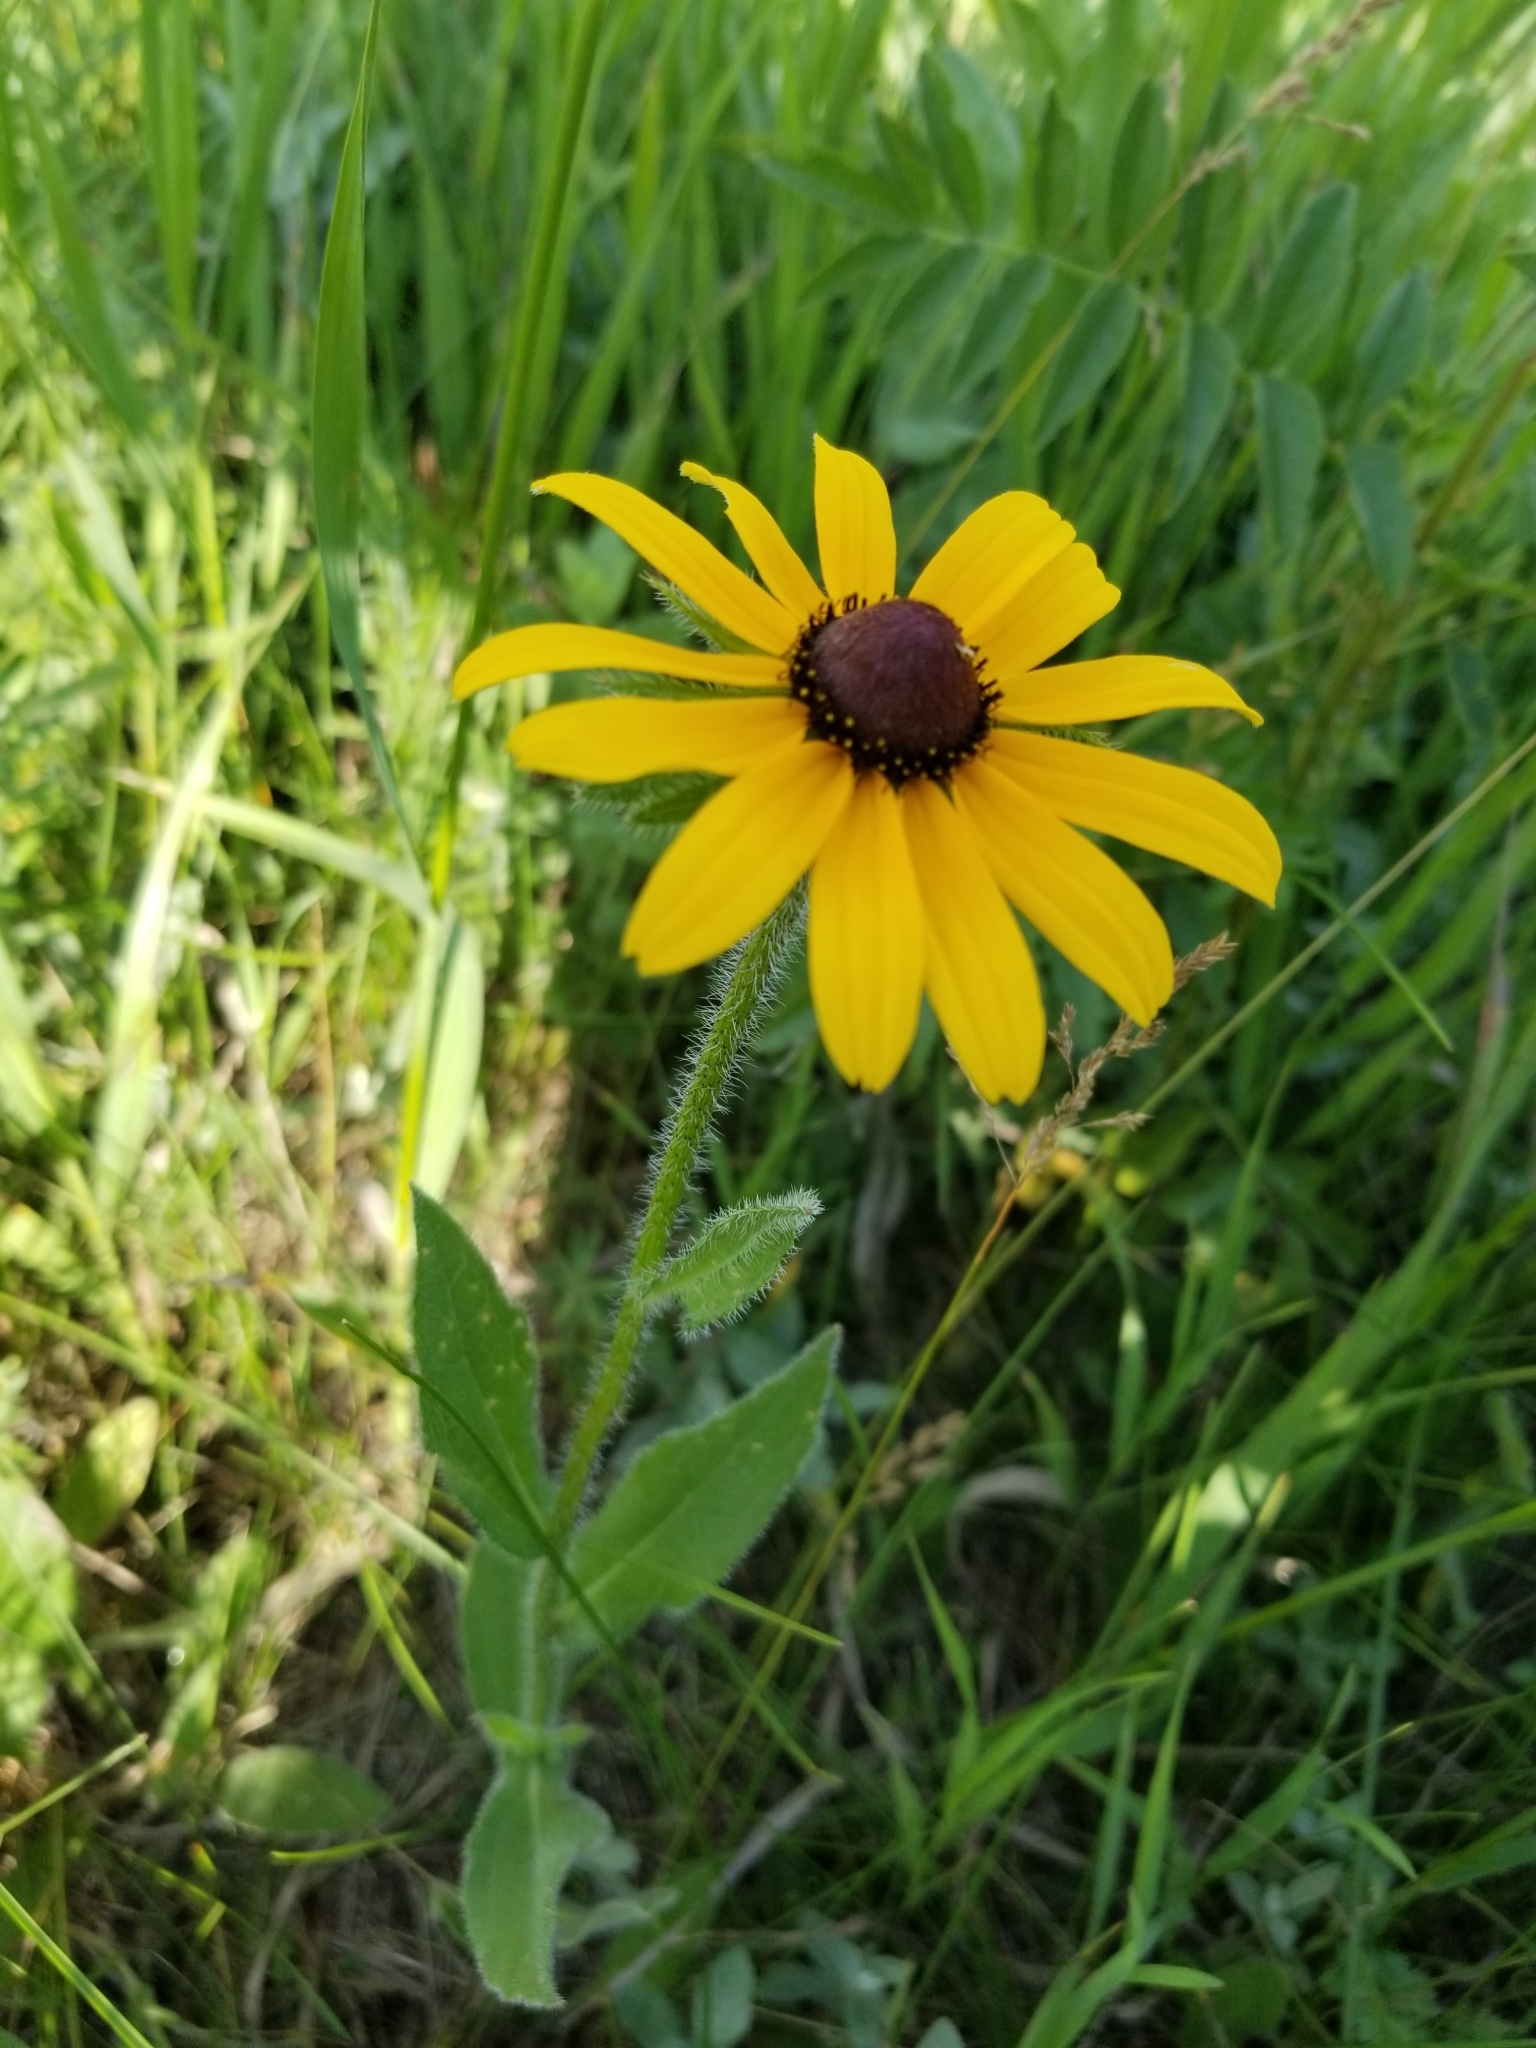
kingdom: Plantae
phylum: Tracheophyta
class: Magnoliopsida
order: Asterales
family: Asteraceae
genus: Rudbeckia
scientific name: Rudbeckia hirta
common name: Black-eyed-susan
